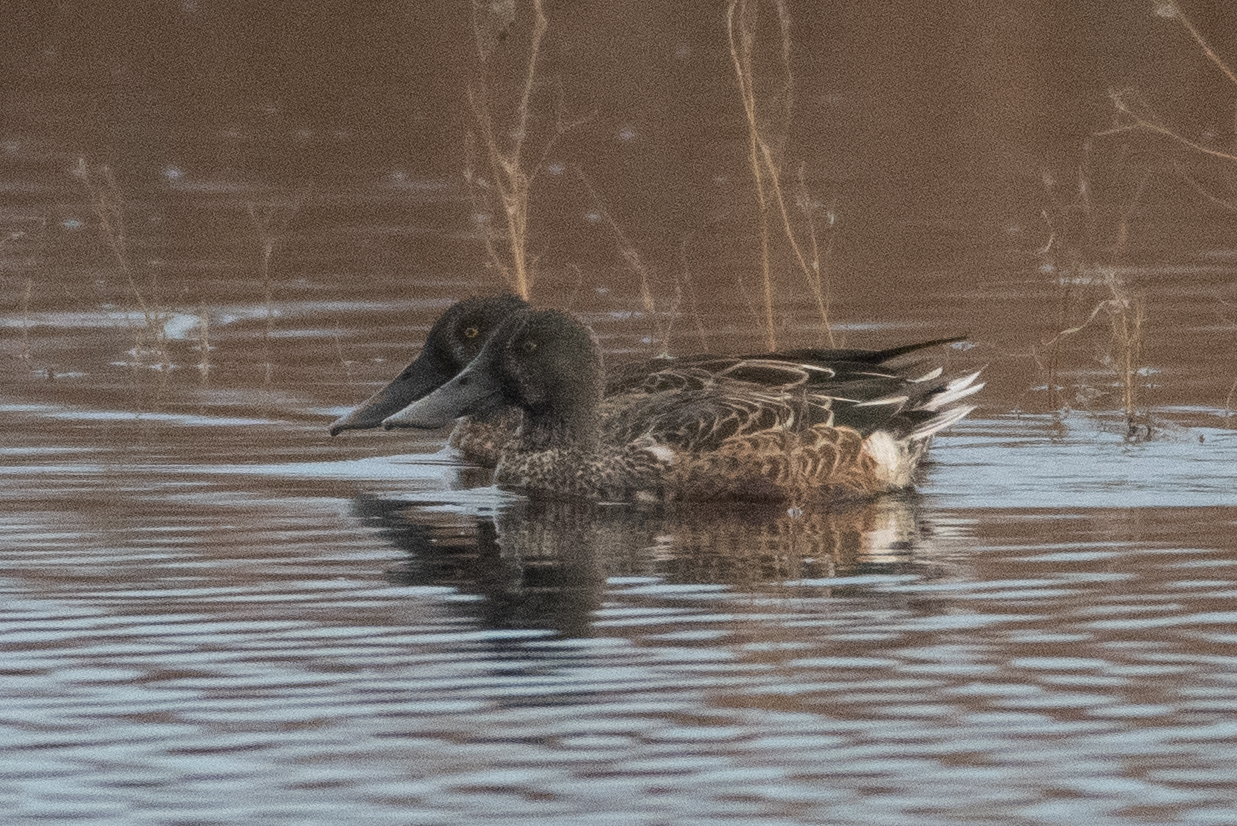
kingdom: Animalia
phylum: Chordata
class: Aves
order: Anseriformes
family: Anatidae
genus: Spatula
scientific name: Spatula clypeata
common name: Northern shoveler
